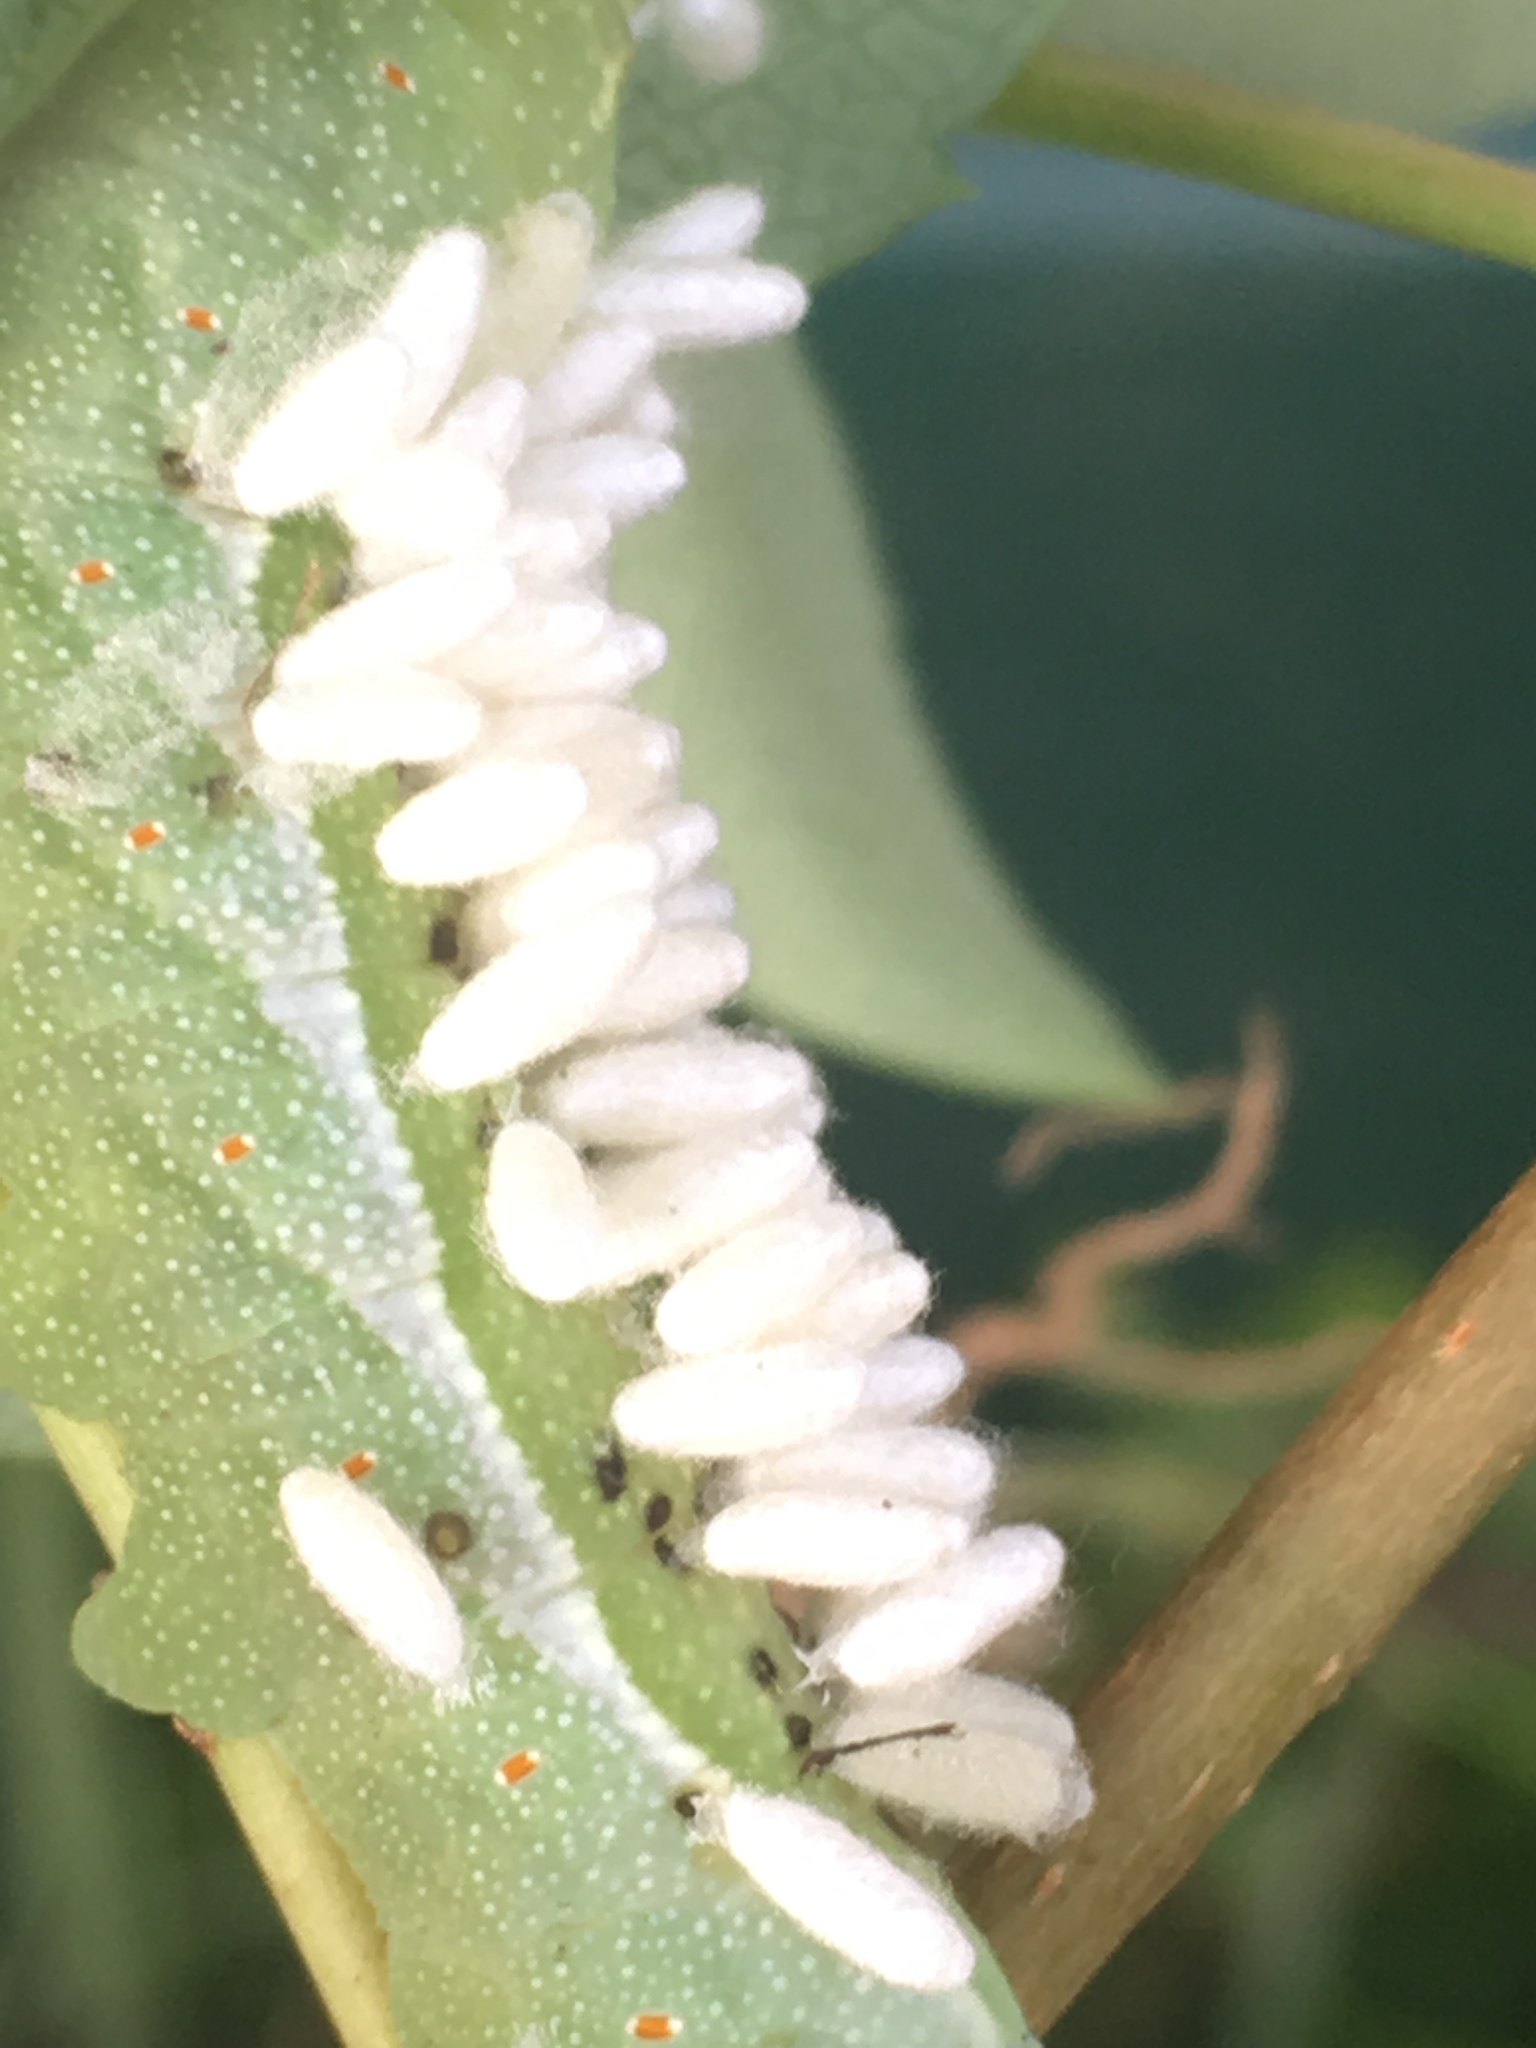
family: Polydnaviriformidae
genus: Bracoviriform
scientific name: Bracoviriform congregatae
